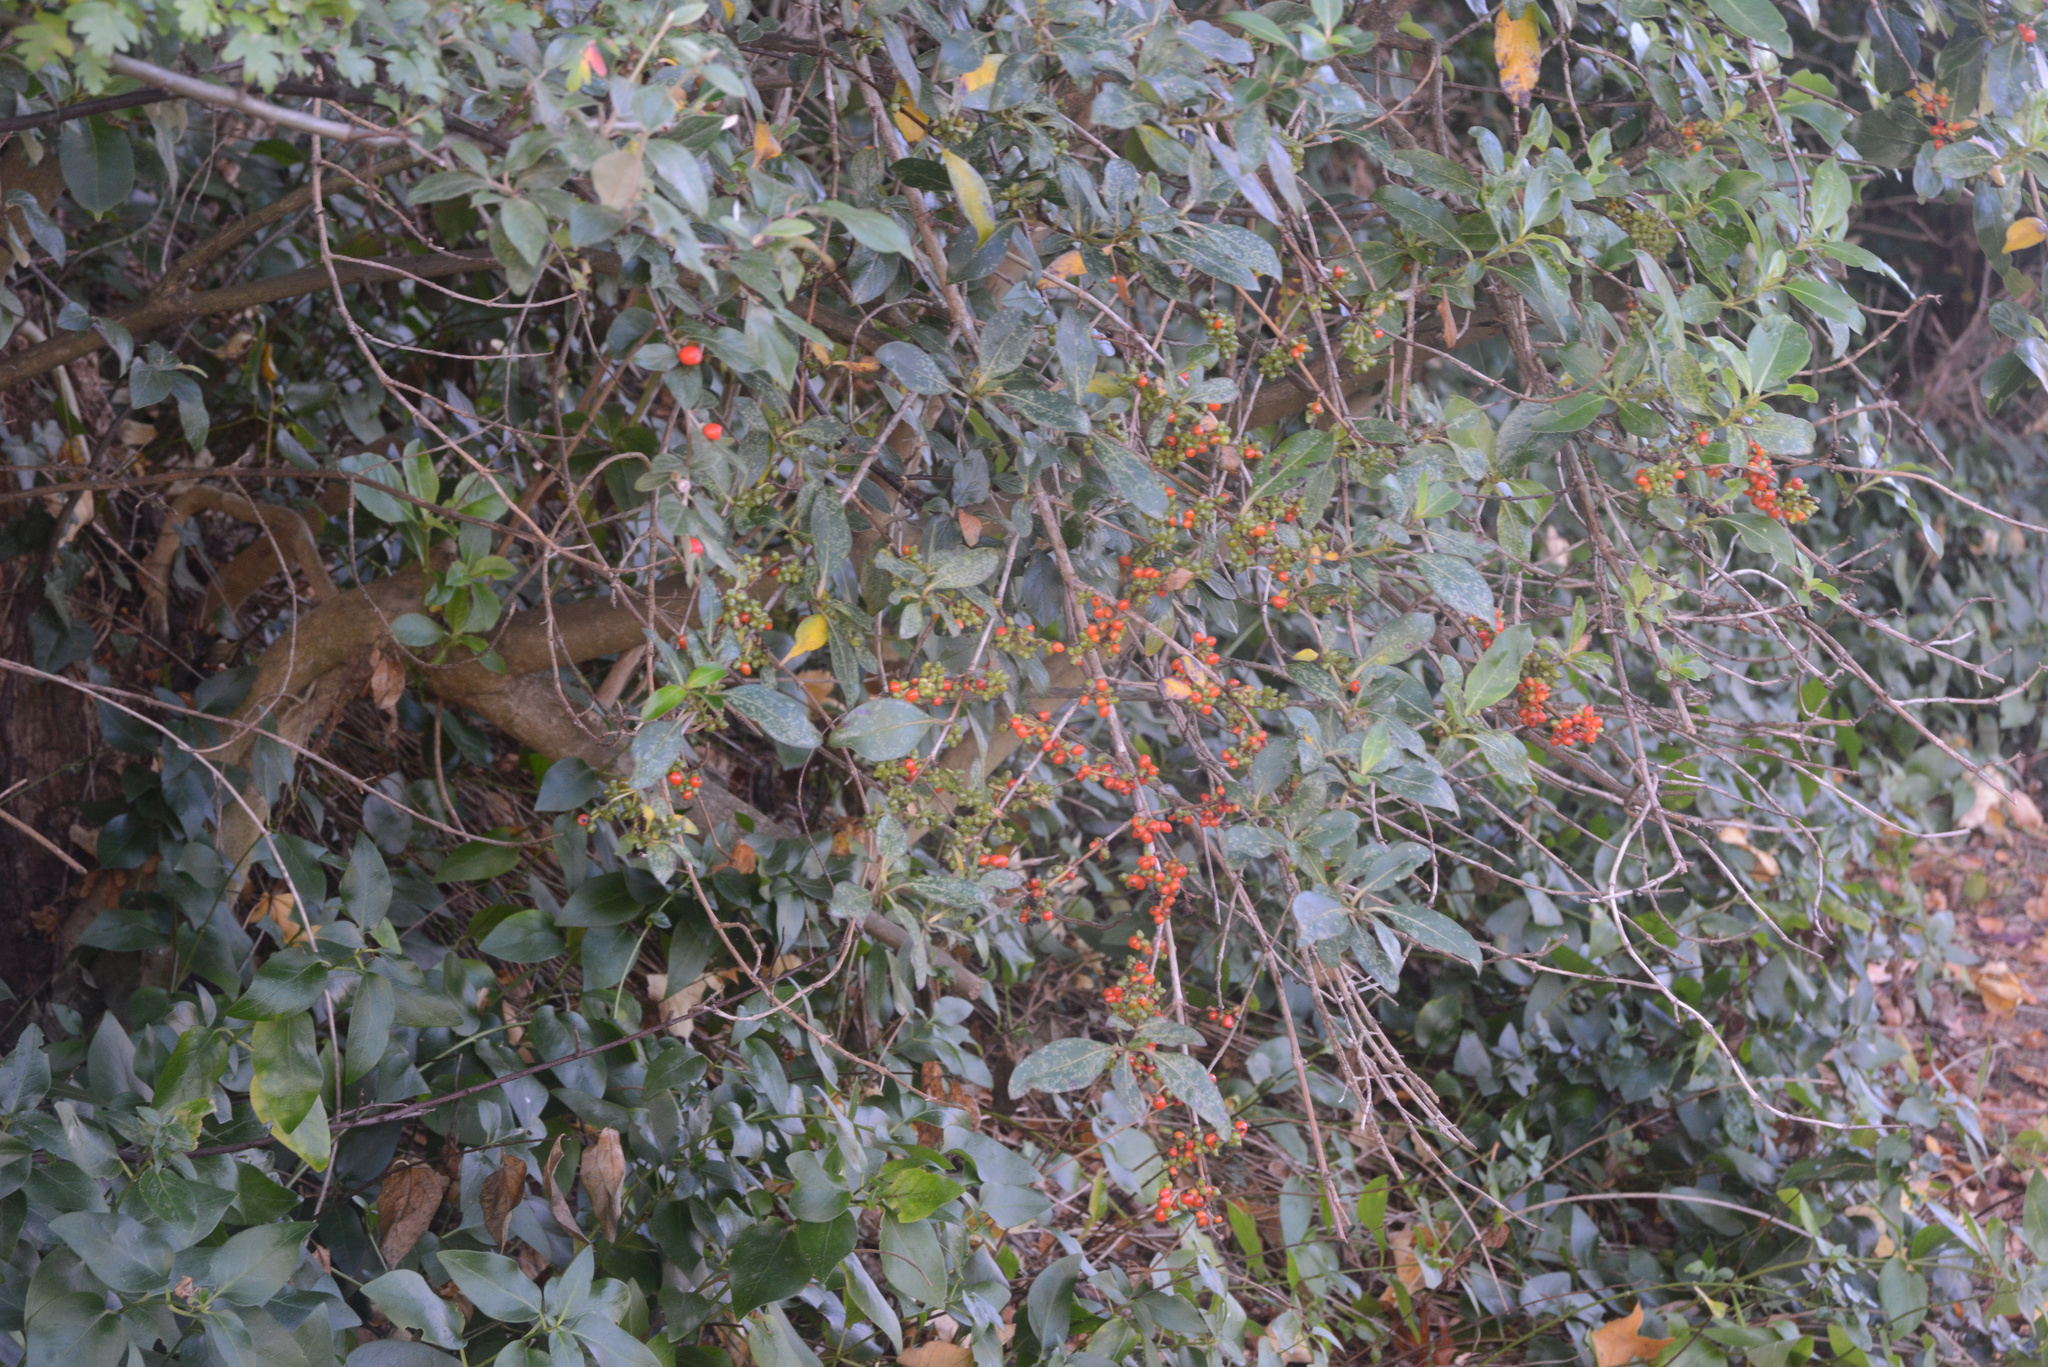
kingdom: Plantae
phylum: Tracheophyta
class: Magnoliopsida
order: Gentianales
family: Rubiaceae
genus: Coprosma
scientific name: Coprosma robusta
